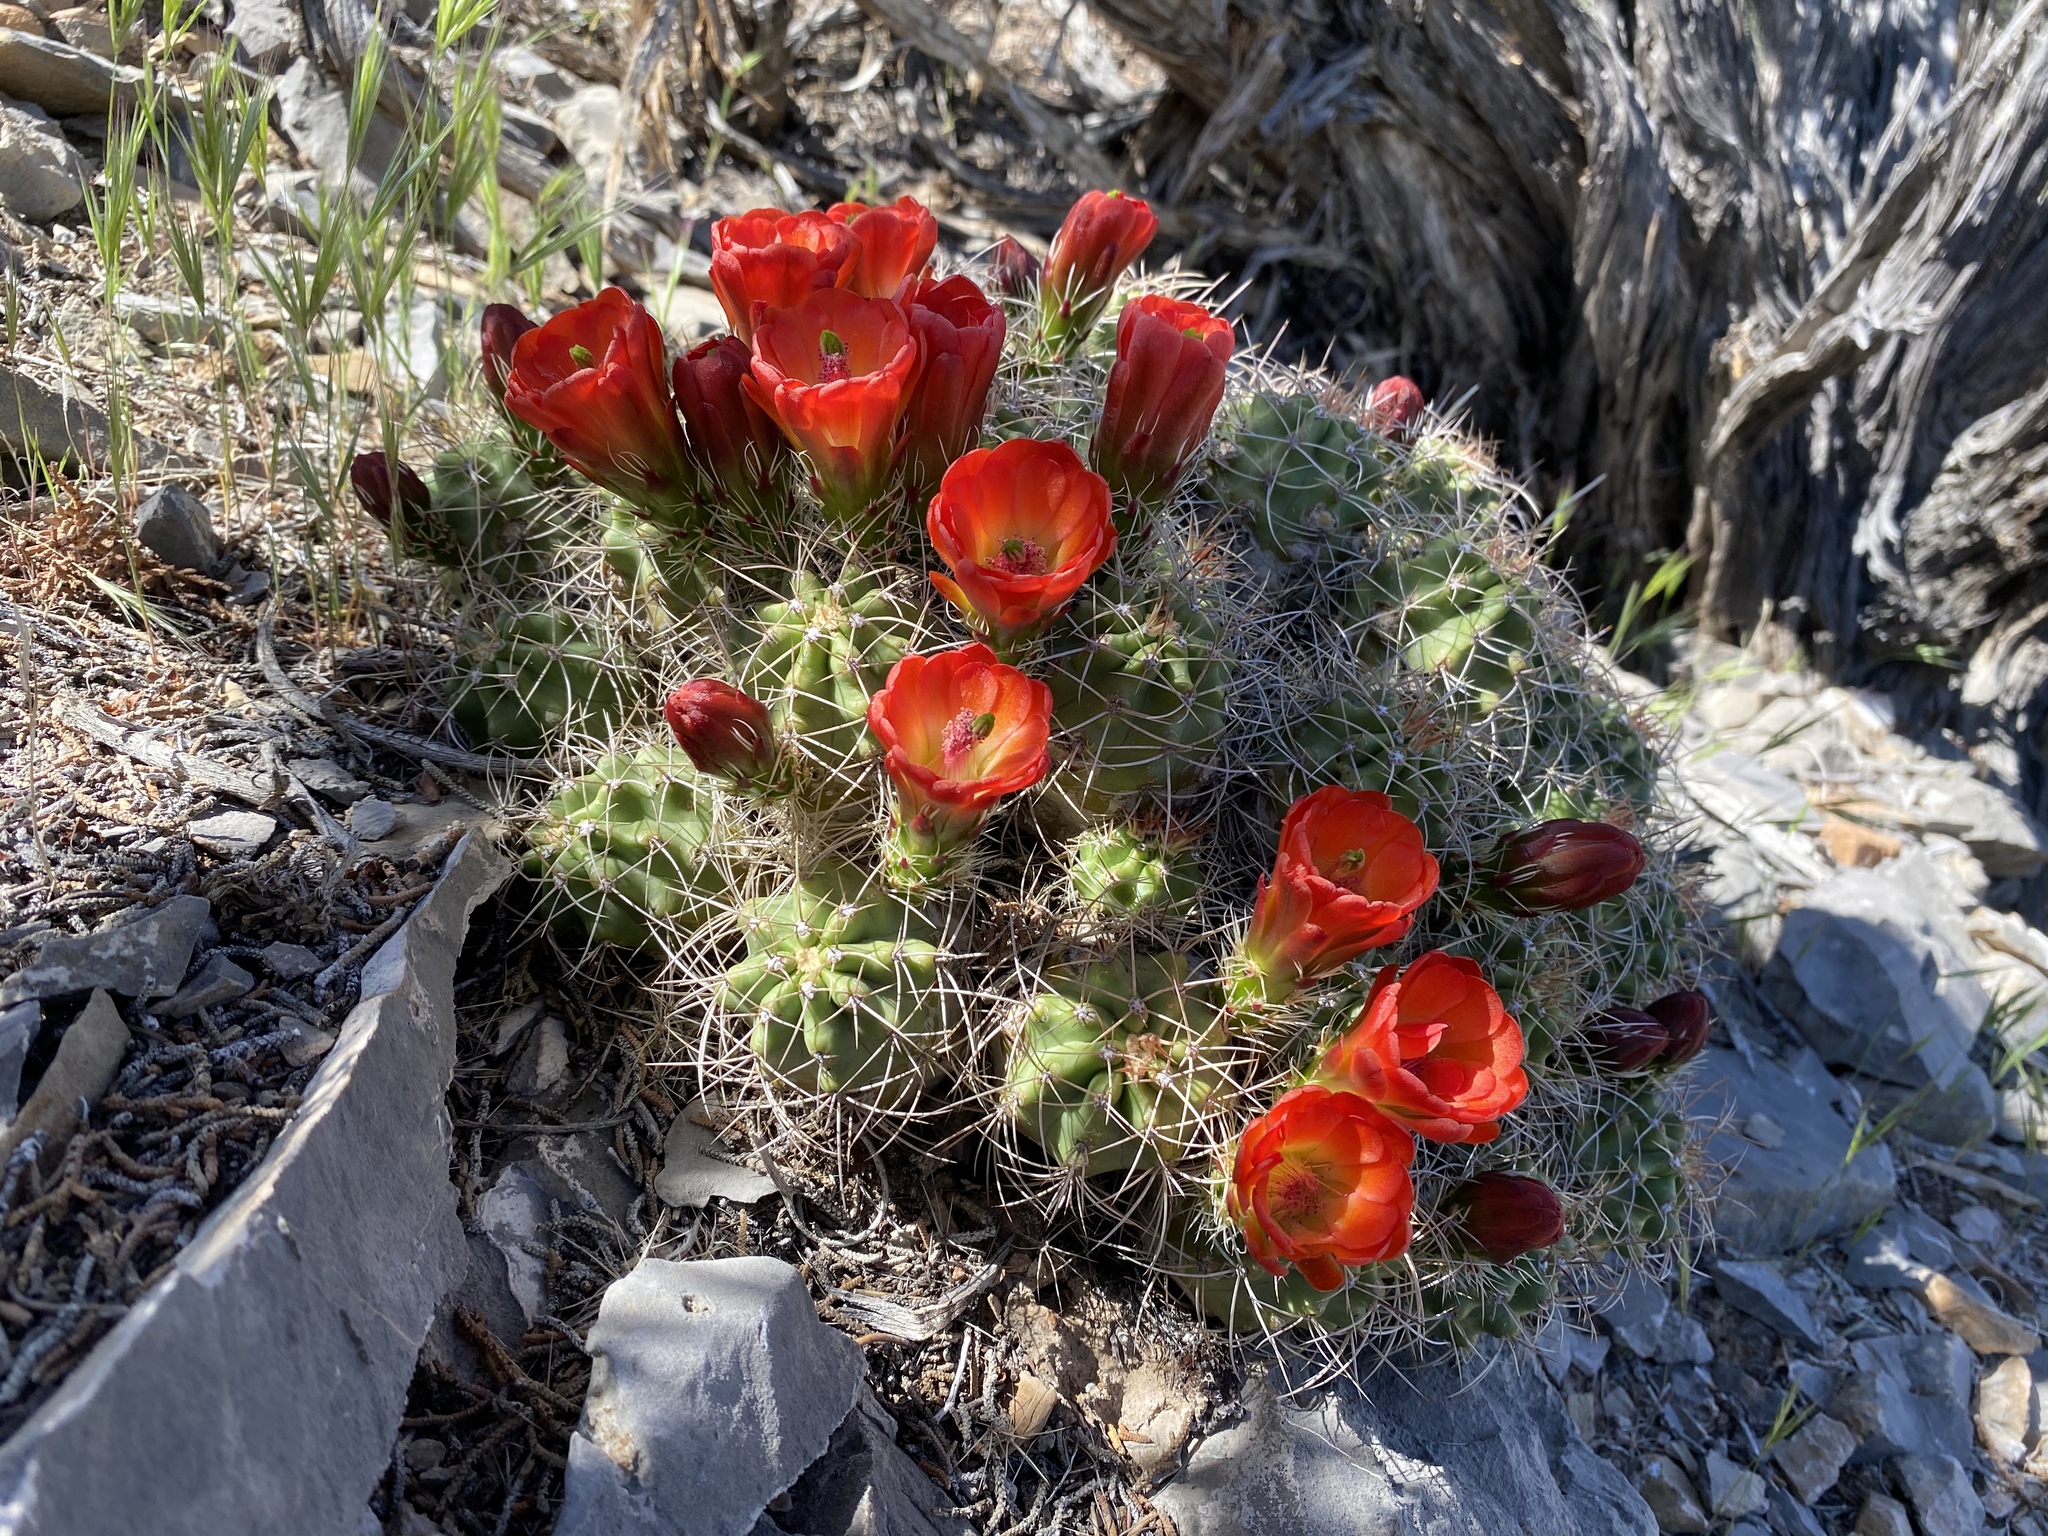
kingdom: Plantae
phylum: Tracheophyta
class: Magnoliopsida
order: Caryophyllales
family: Cactaceae
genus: Echinocereus
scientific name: Echinocereus triglochidiatus
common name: Claretcup hedgehog
